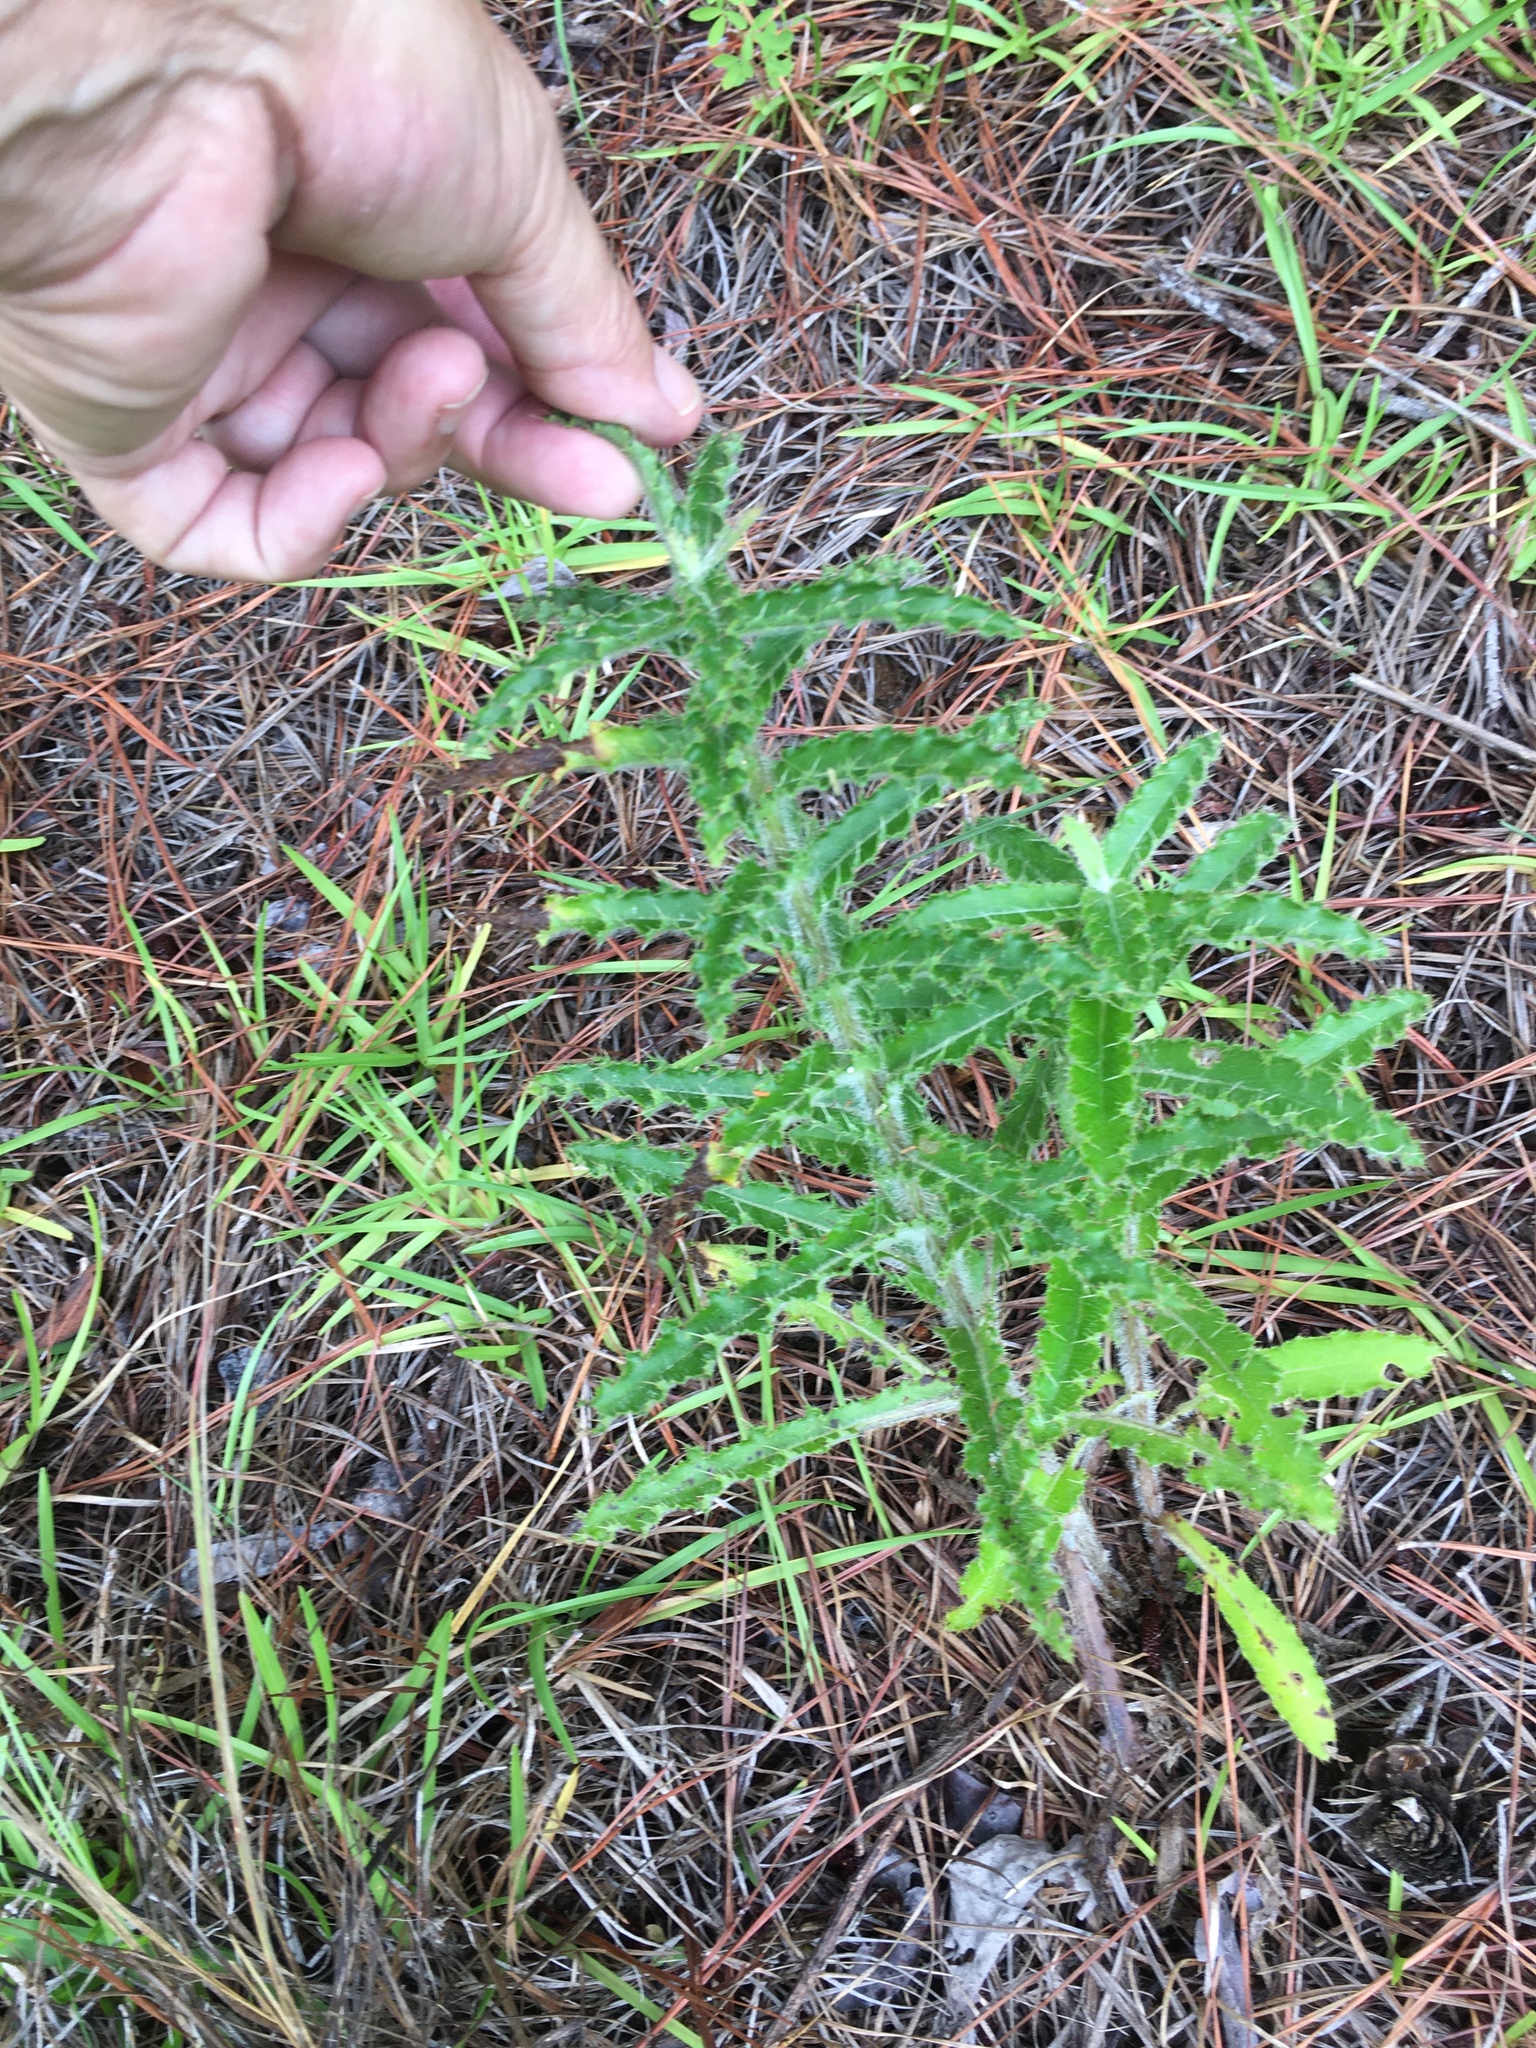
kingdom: Plantae
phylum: Tracheophyta
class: Magnoliopsida
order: Asterales
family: Asteraceae
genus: Cirsium
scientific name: Cirsium repandum
